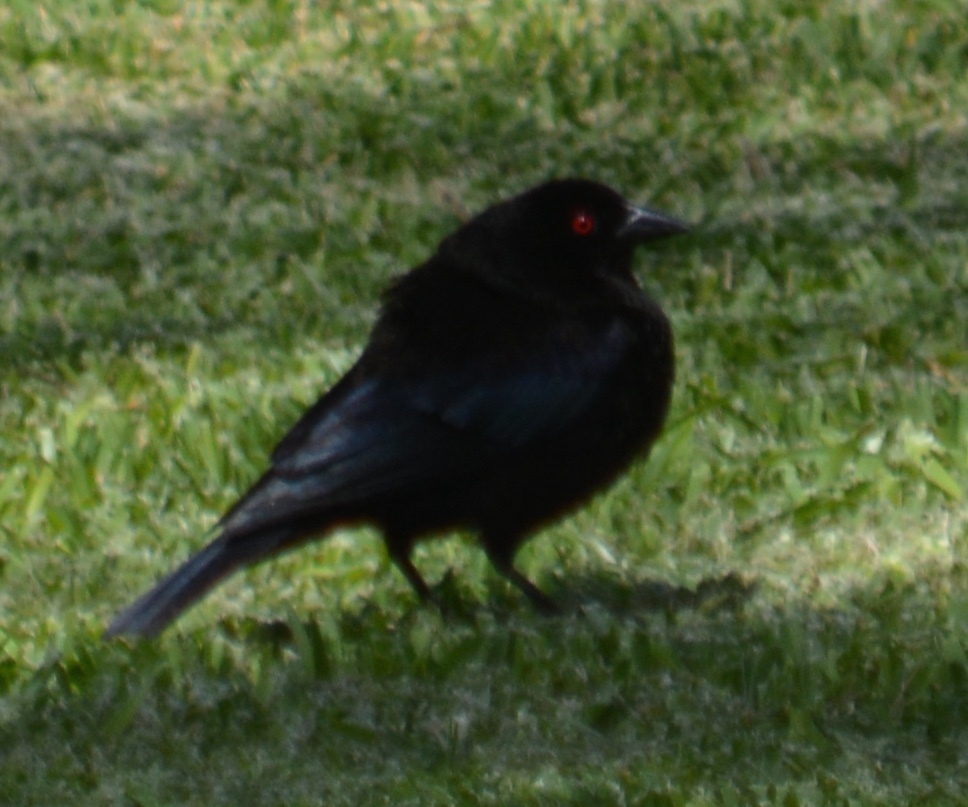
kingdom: Animalia
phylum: Chordata
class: Aves
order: Passeriformes
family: Icteridae
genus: Molothrus
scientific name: Molothrus aeneus
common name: Bronzed cowbird
